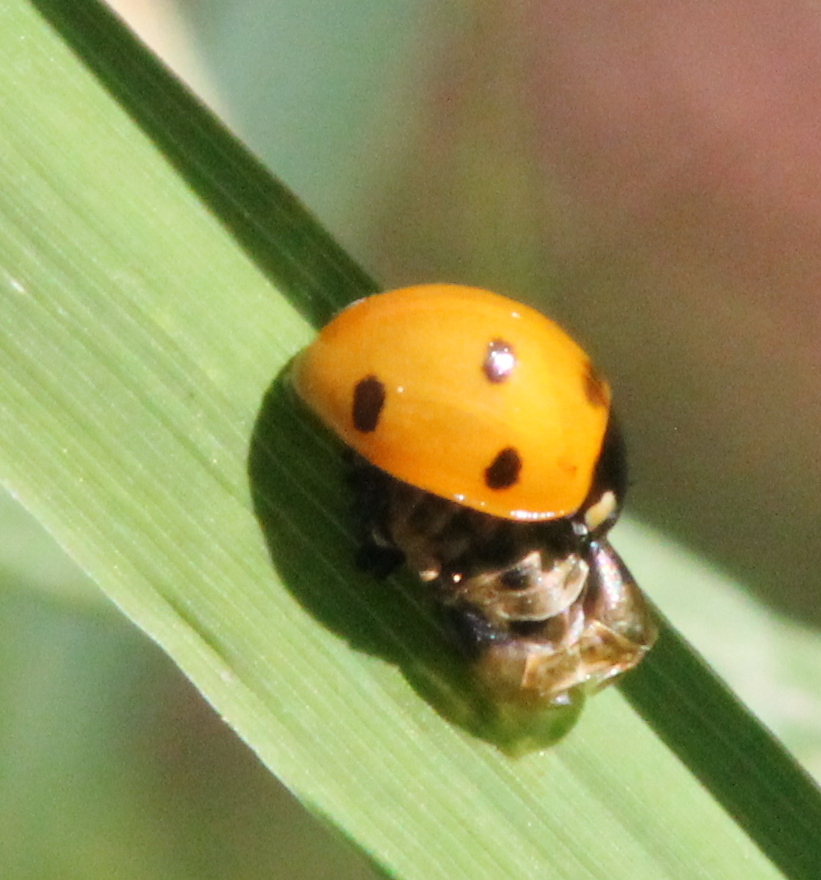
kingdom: Animalia
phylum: Arthropoda
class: Insecta
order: Coleoptera
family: Coccinellidae
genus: Coccinella
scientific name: Coccinella septempunctata
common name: Sevenspotted lady beetle
